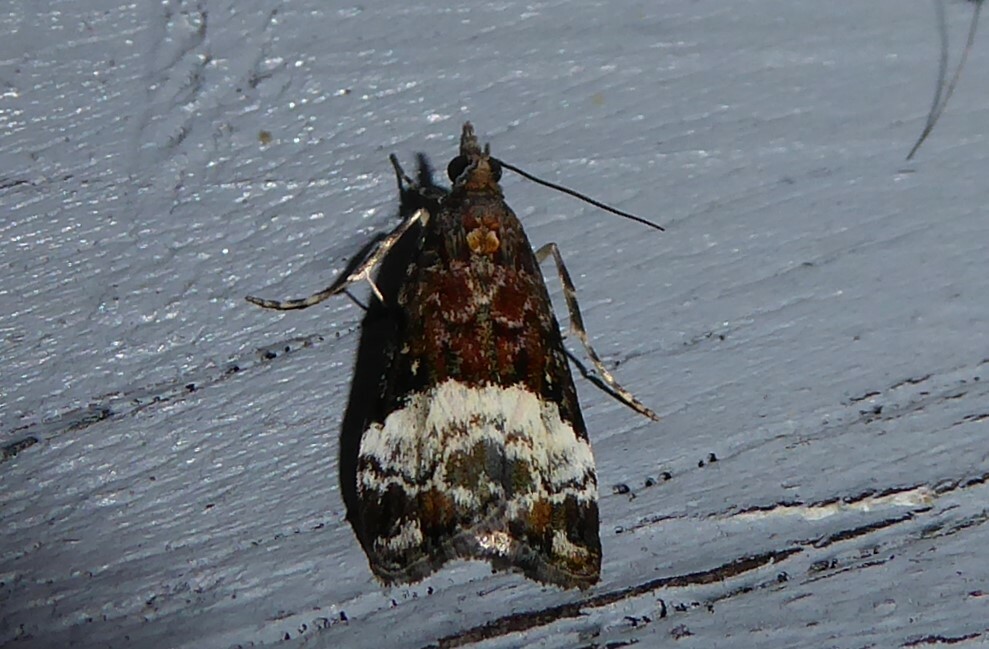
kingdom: Animalia
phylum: Arthropoda
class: Insecta
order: Lepidoptera
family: Crambidae
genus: Scoparia
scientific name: Scoparia minusculalis
